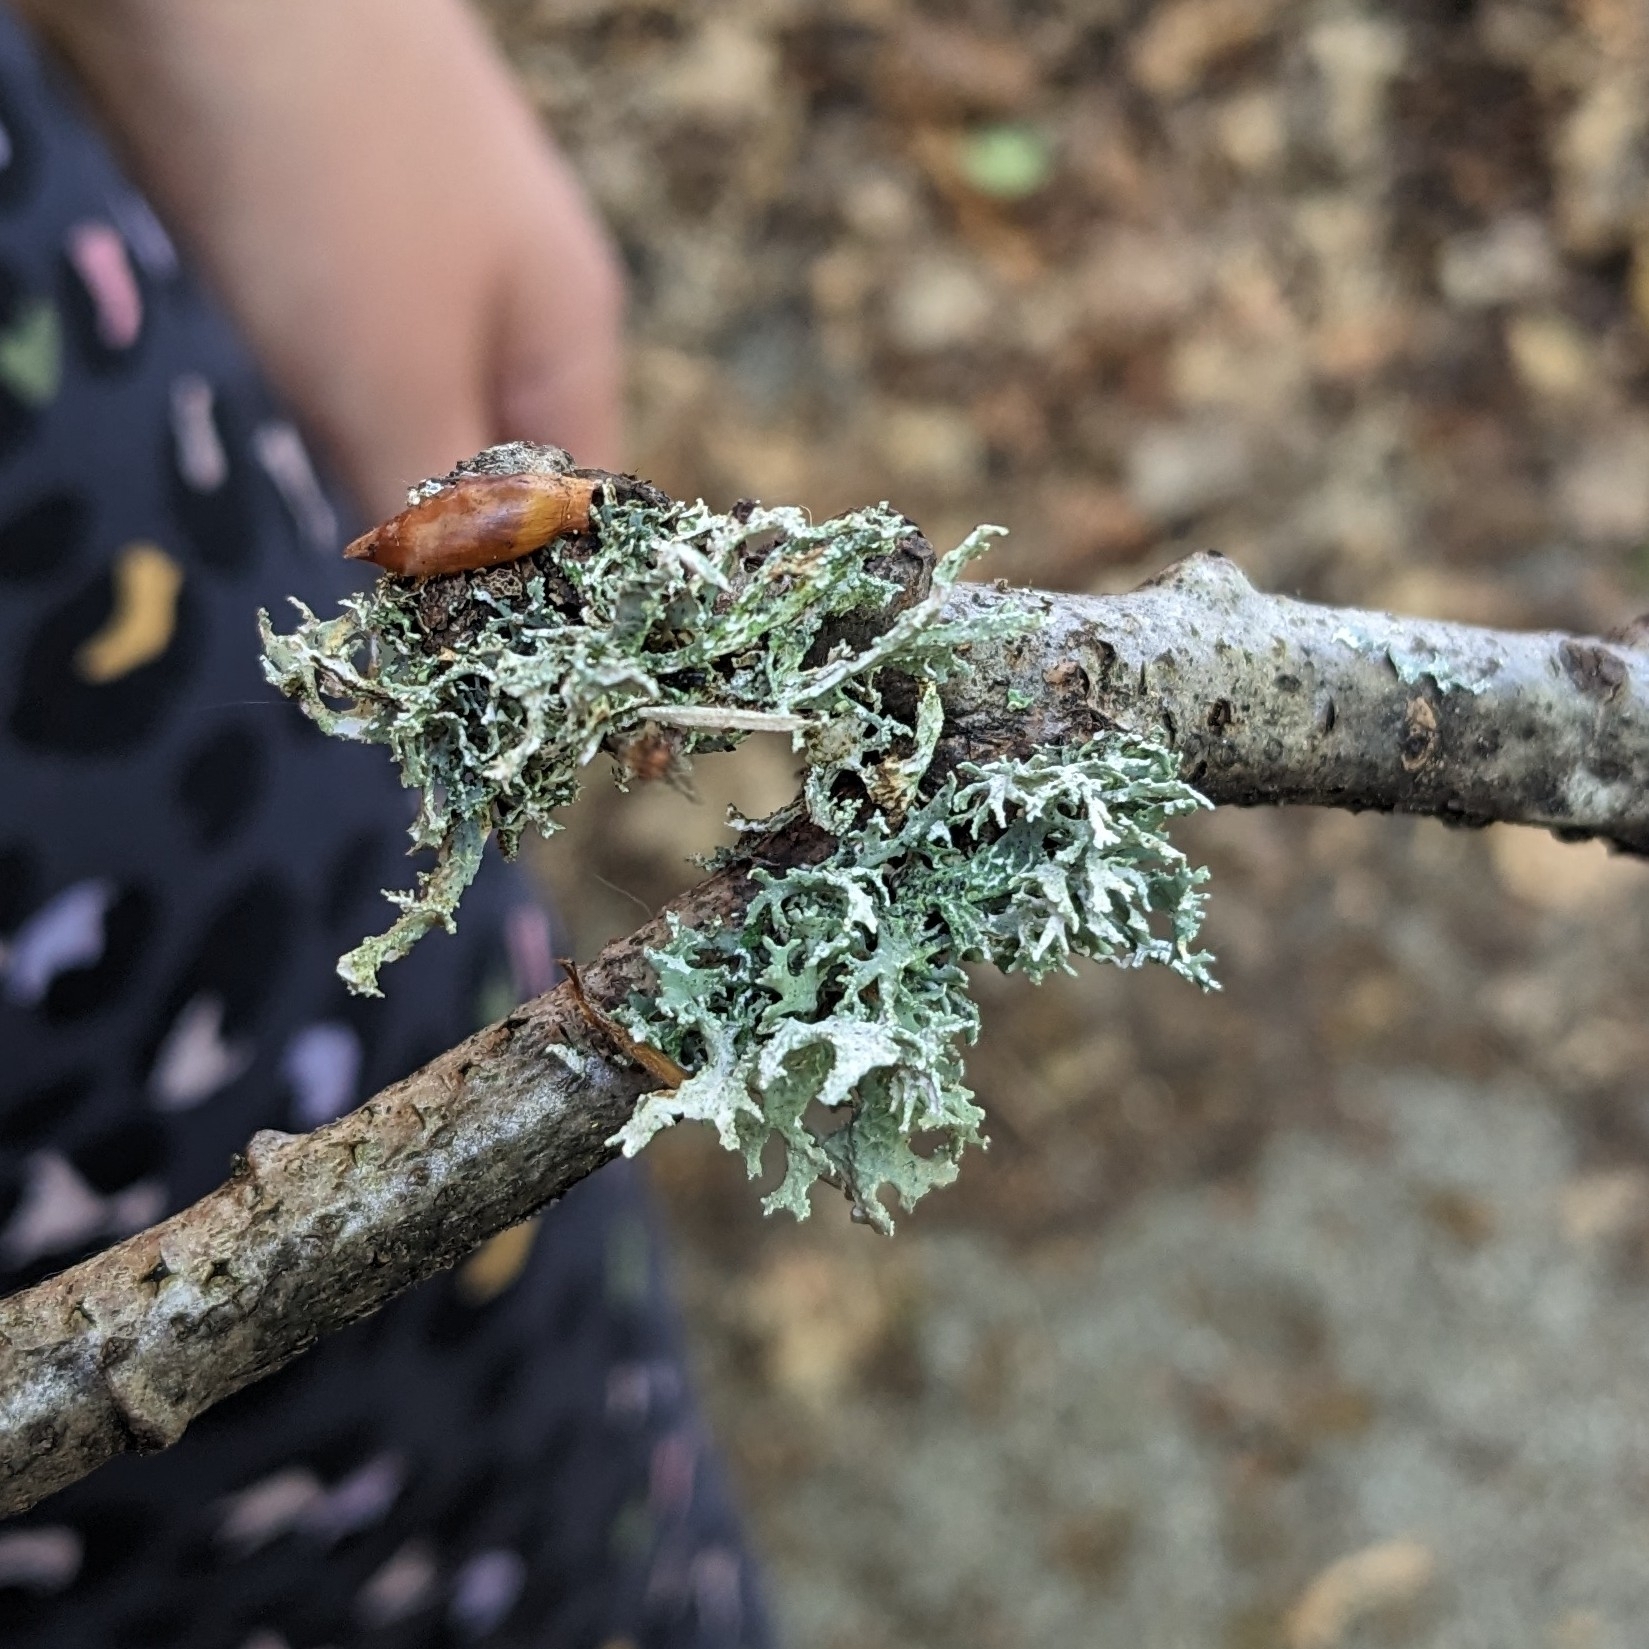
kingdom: Fungi
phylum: Ascomycota
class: Lecanoromycetes
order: Lecanorales
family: Parmeliaceae
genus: Evernia
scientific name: Evernia prunastri
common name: Oak moss
